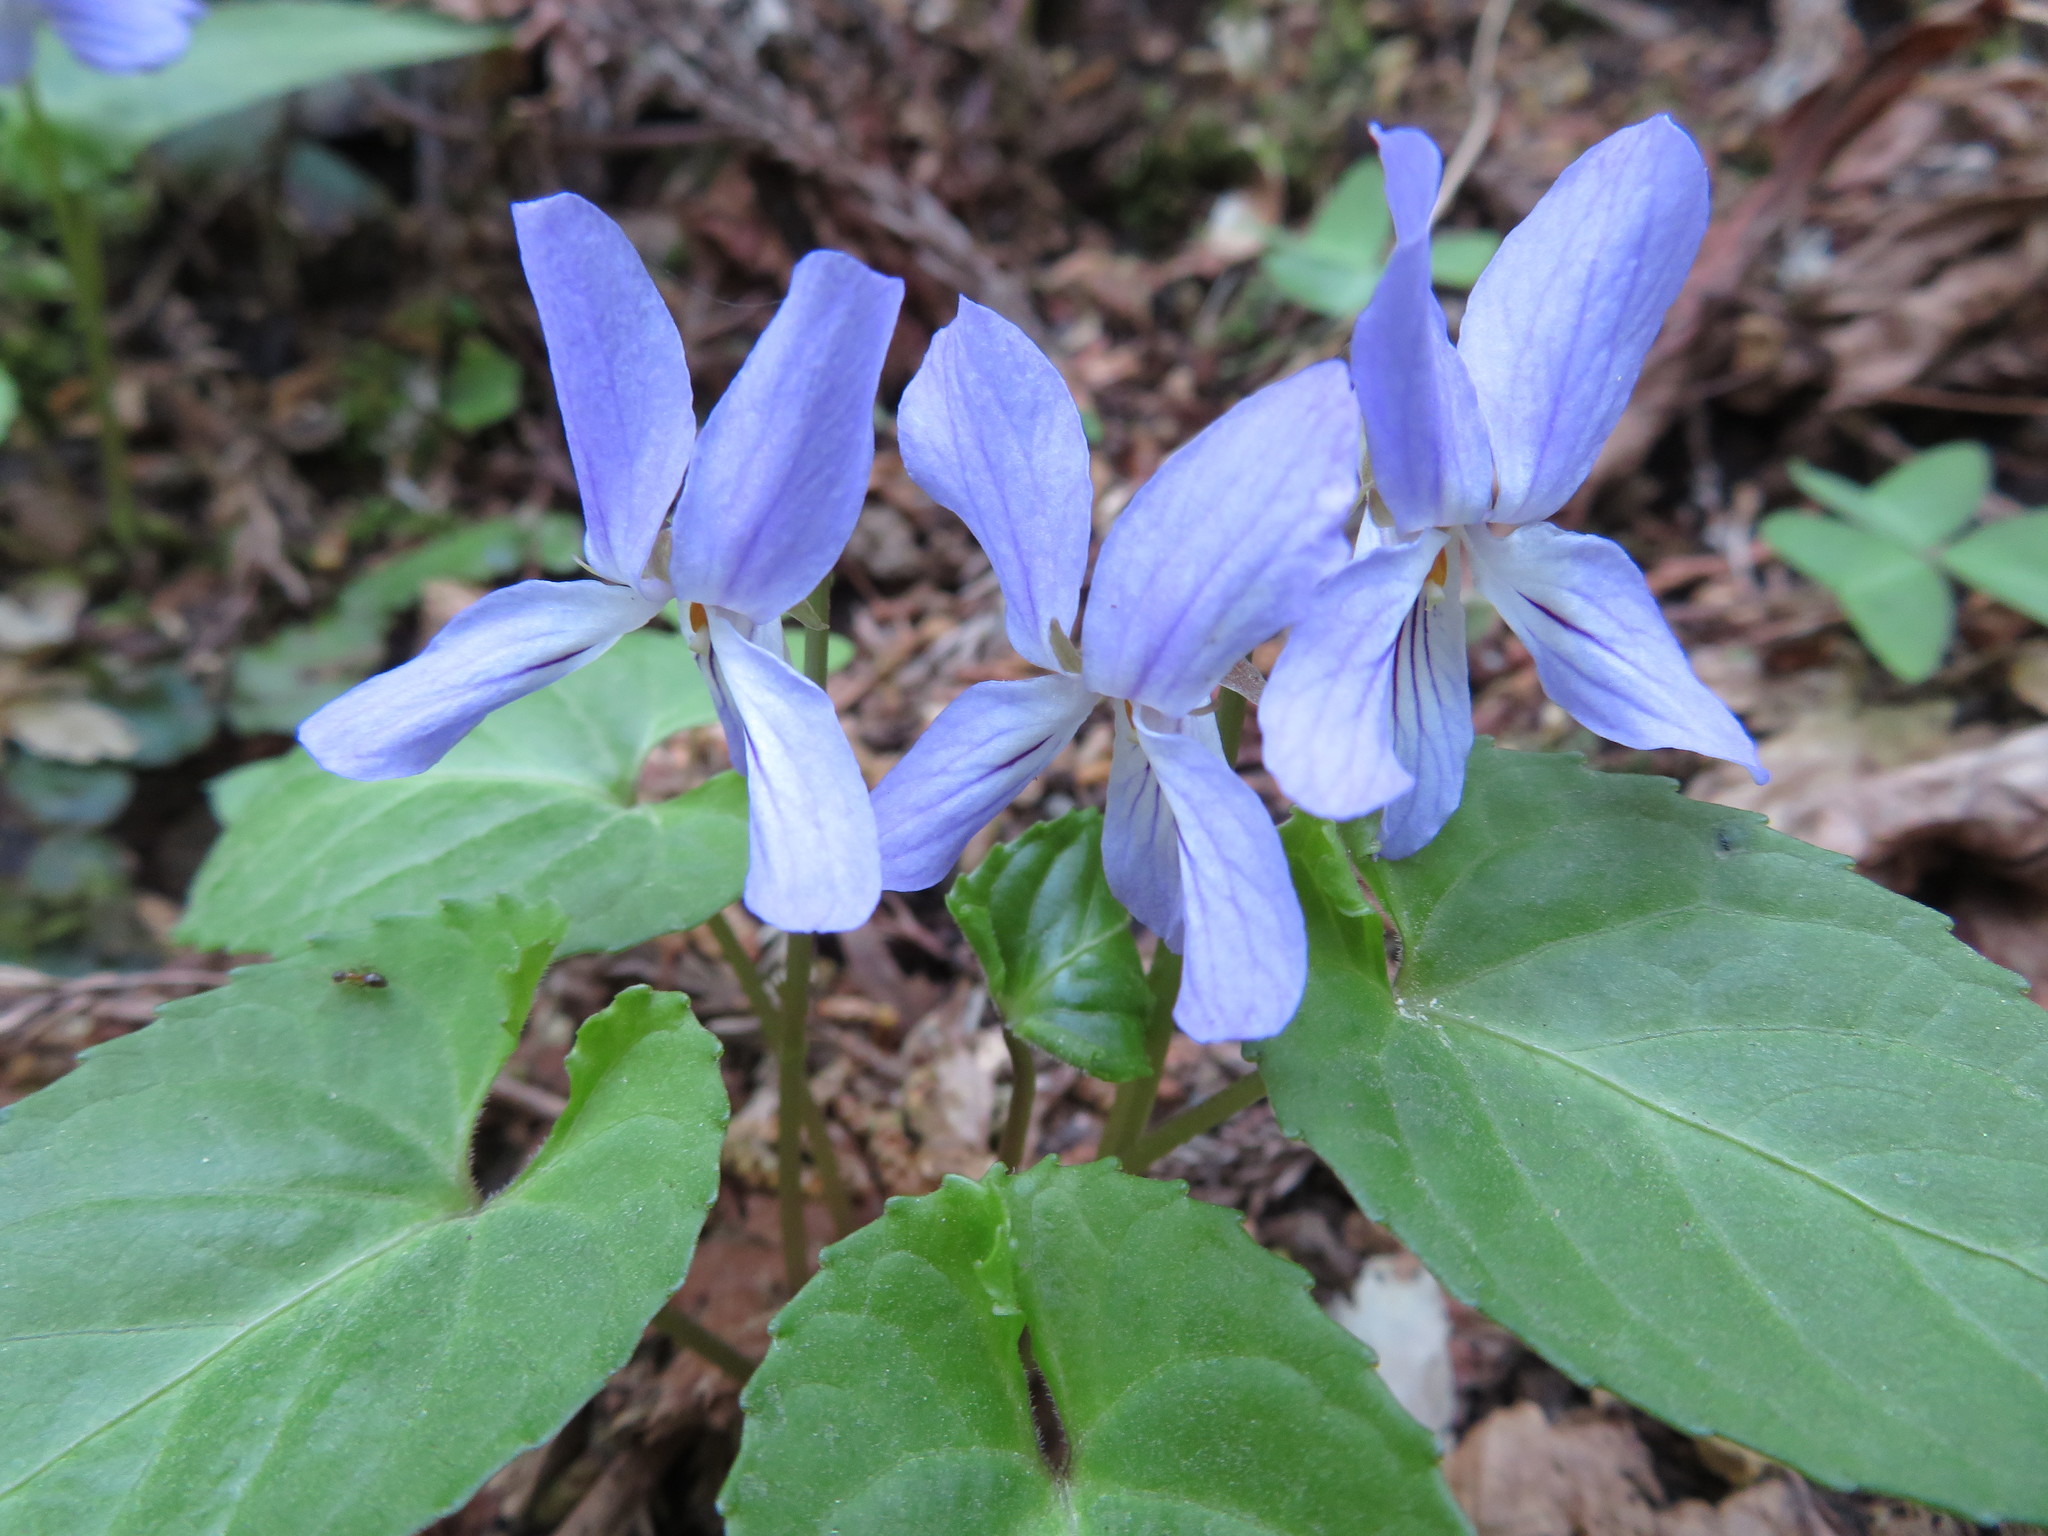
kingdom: Plantae
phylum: Tracheophyta
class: Magnoliopsida
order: Malpighiales
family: Violaceae
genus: Viola
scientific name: Viola bissetii
